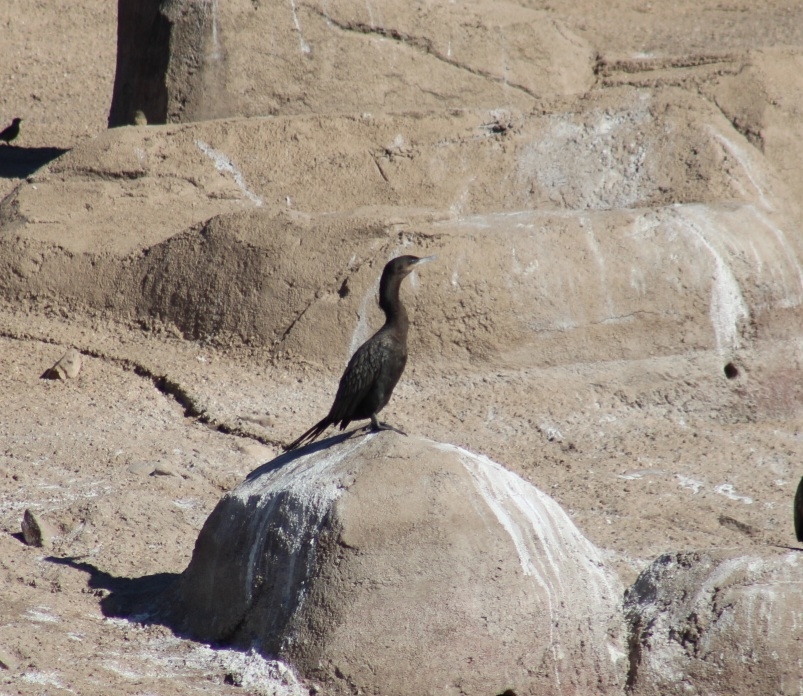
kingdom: Animalia
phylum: Chordata
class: Aves
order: Suliformes
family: Phalacrocoracidae
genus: Phalacrocorax
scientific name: Phalacrocorax brasilianus
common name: Neotropic cormorant
